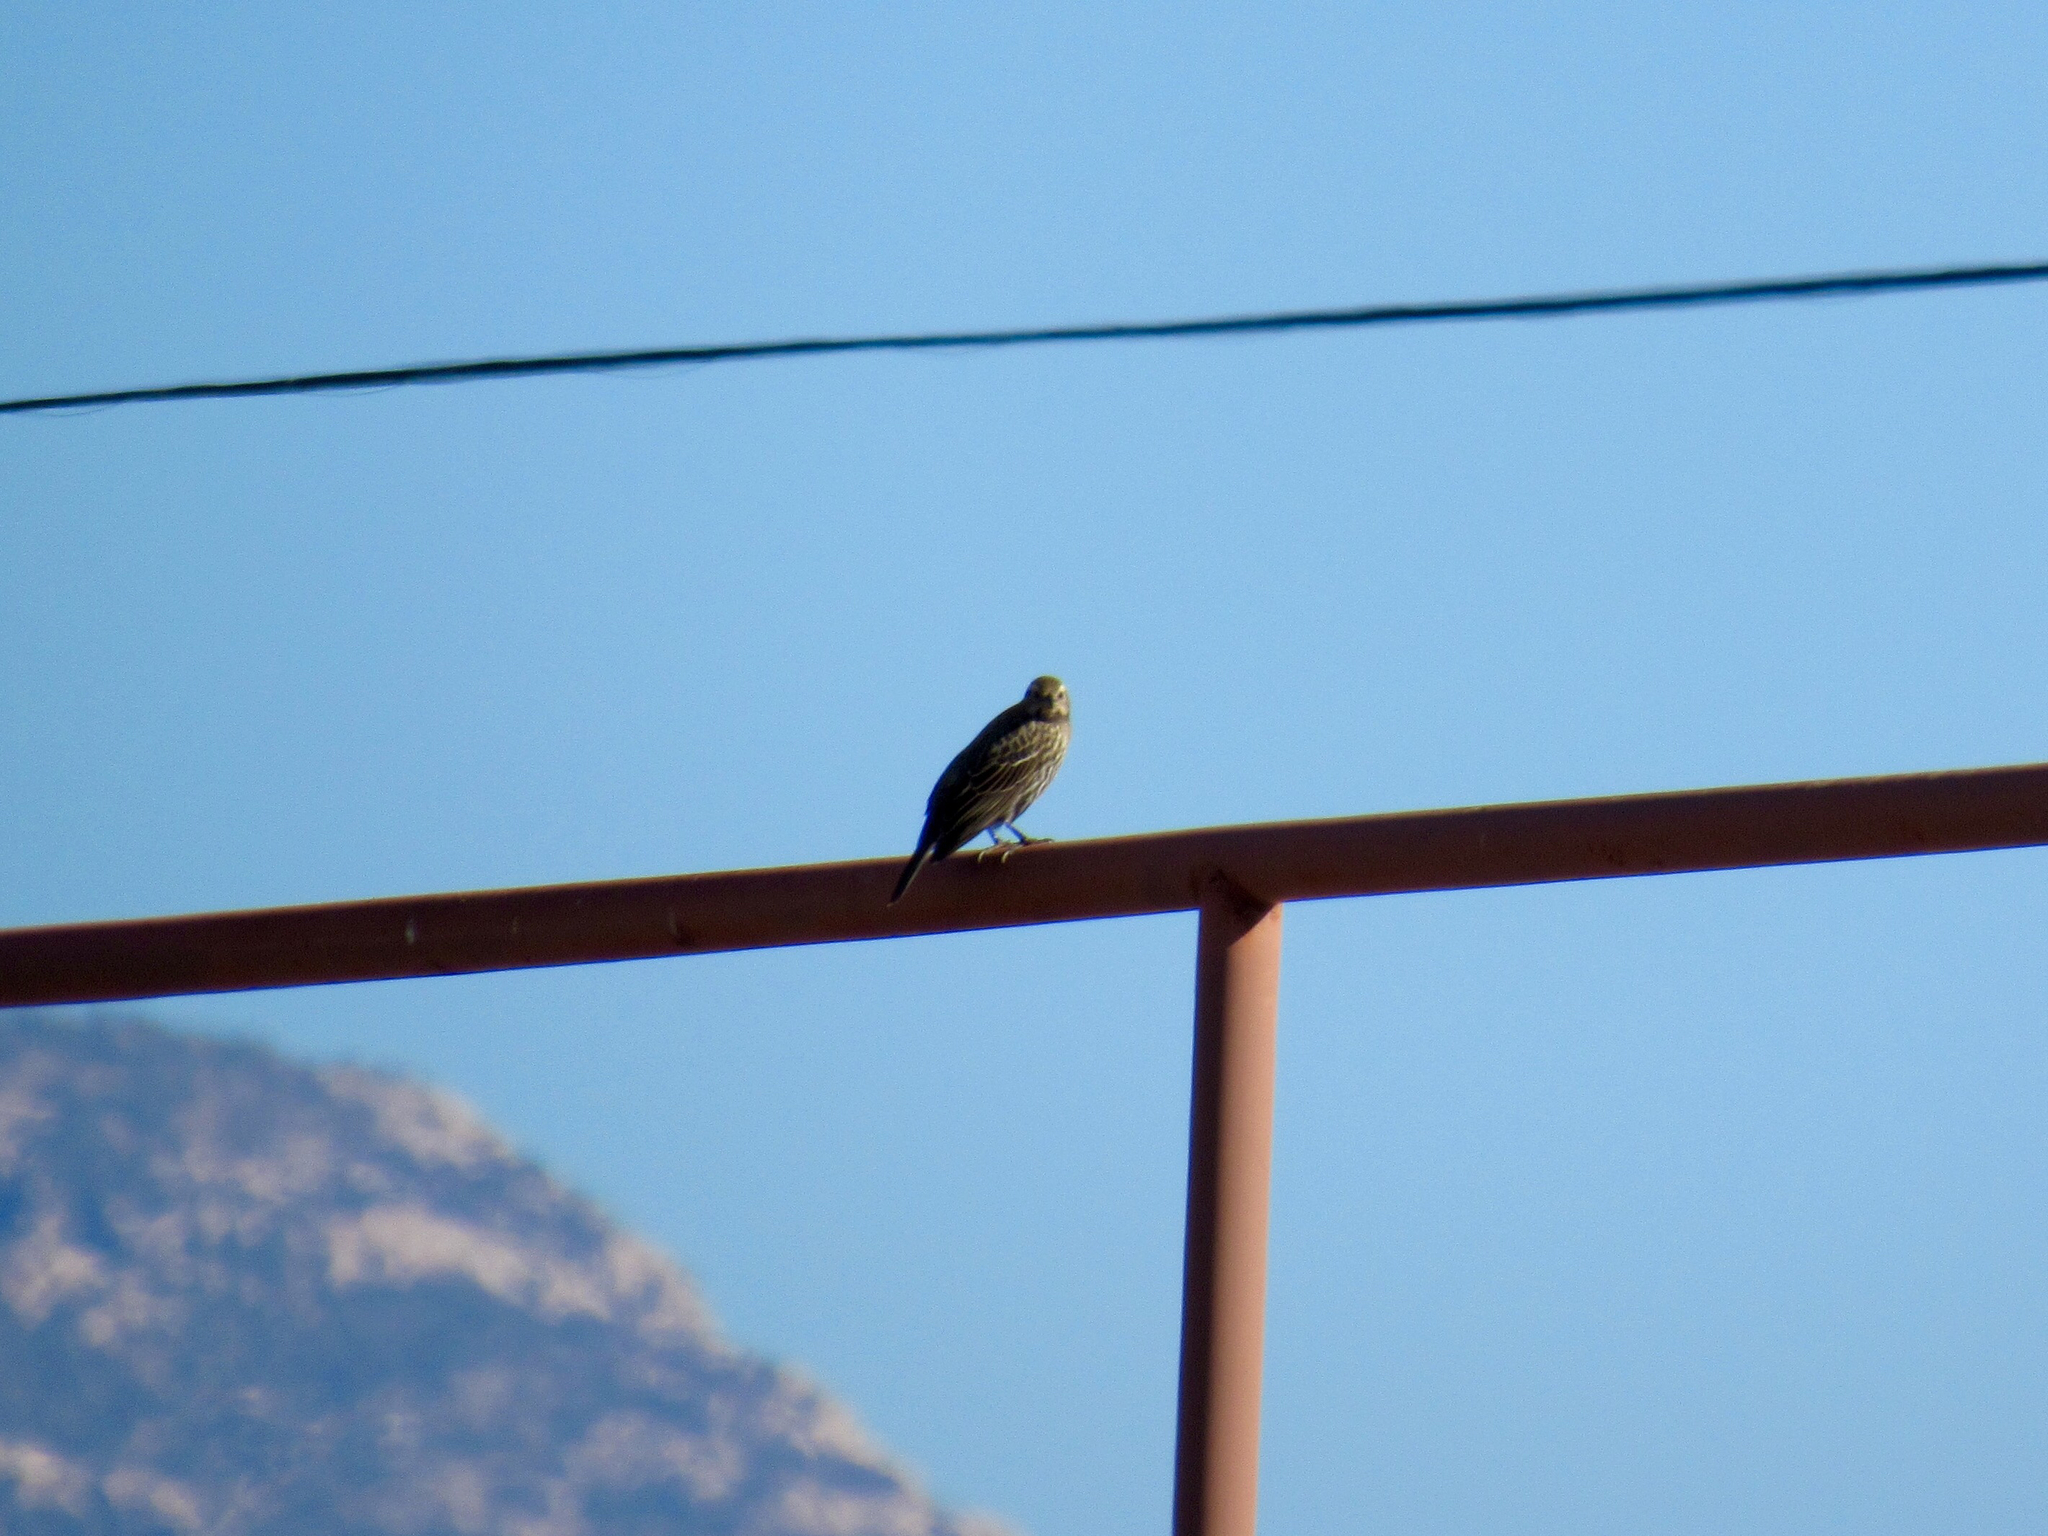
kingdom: Animalia
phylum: Chordata
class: Aves
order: Passeriformes
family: Icteridae
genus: Agelaius
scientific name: Agelaius phoeniceus
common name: Red-winged blackbird
